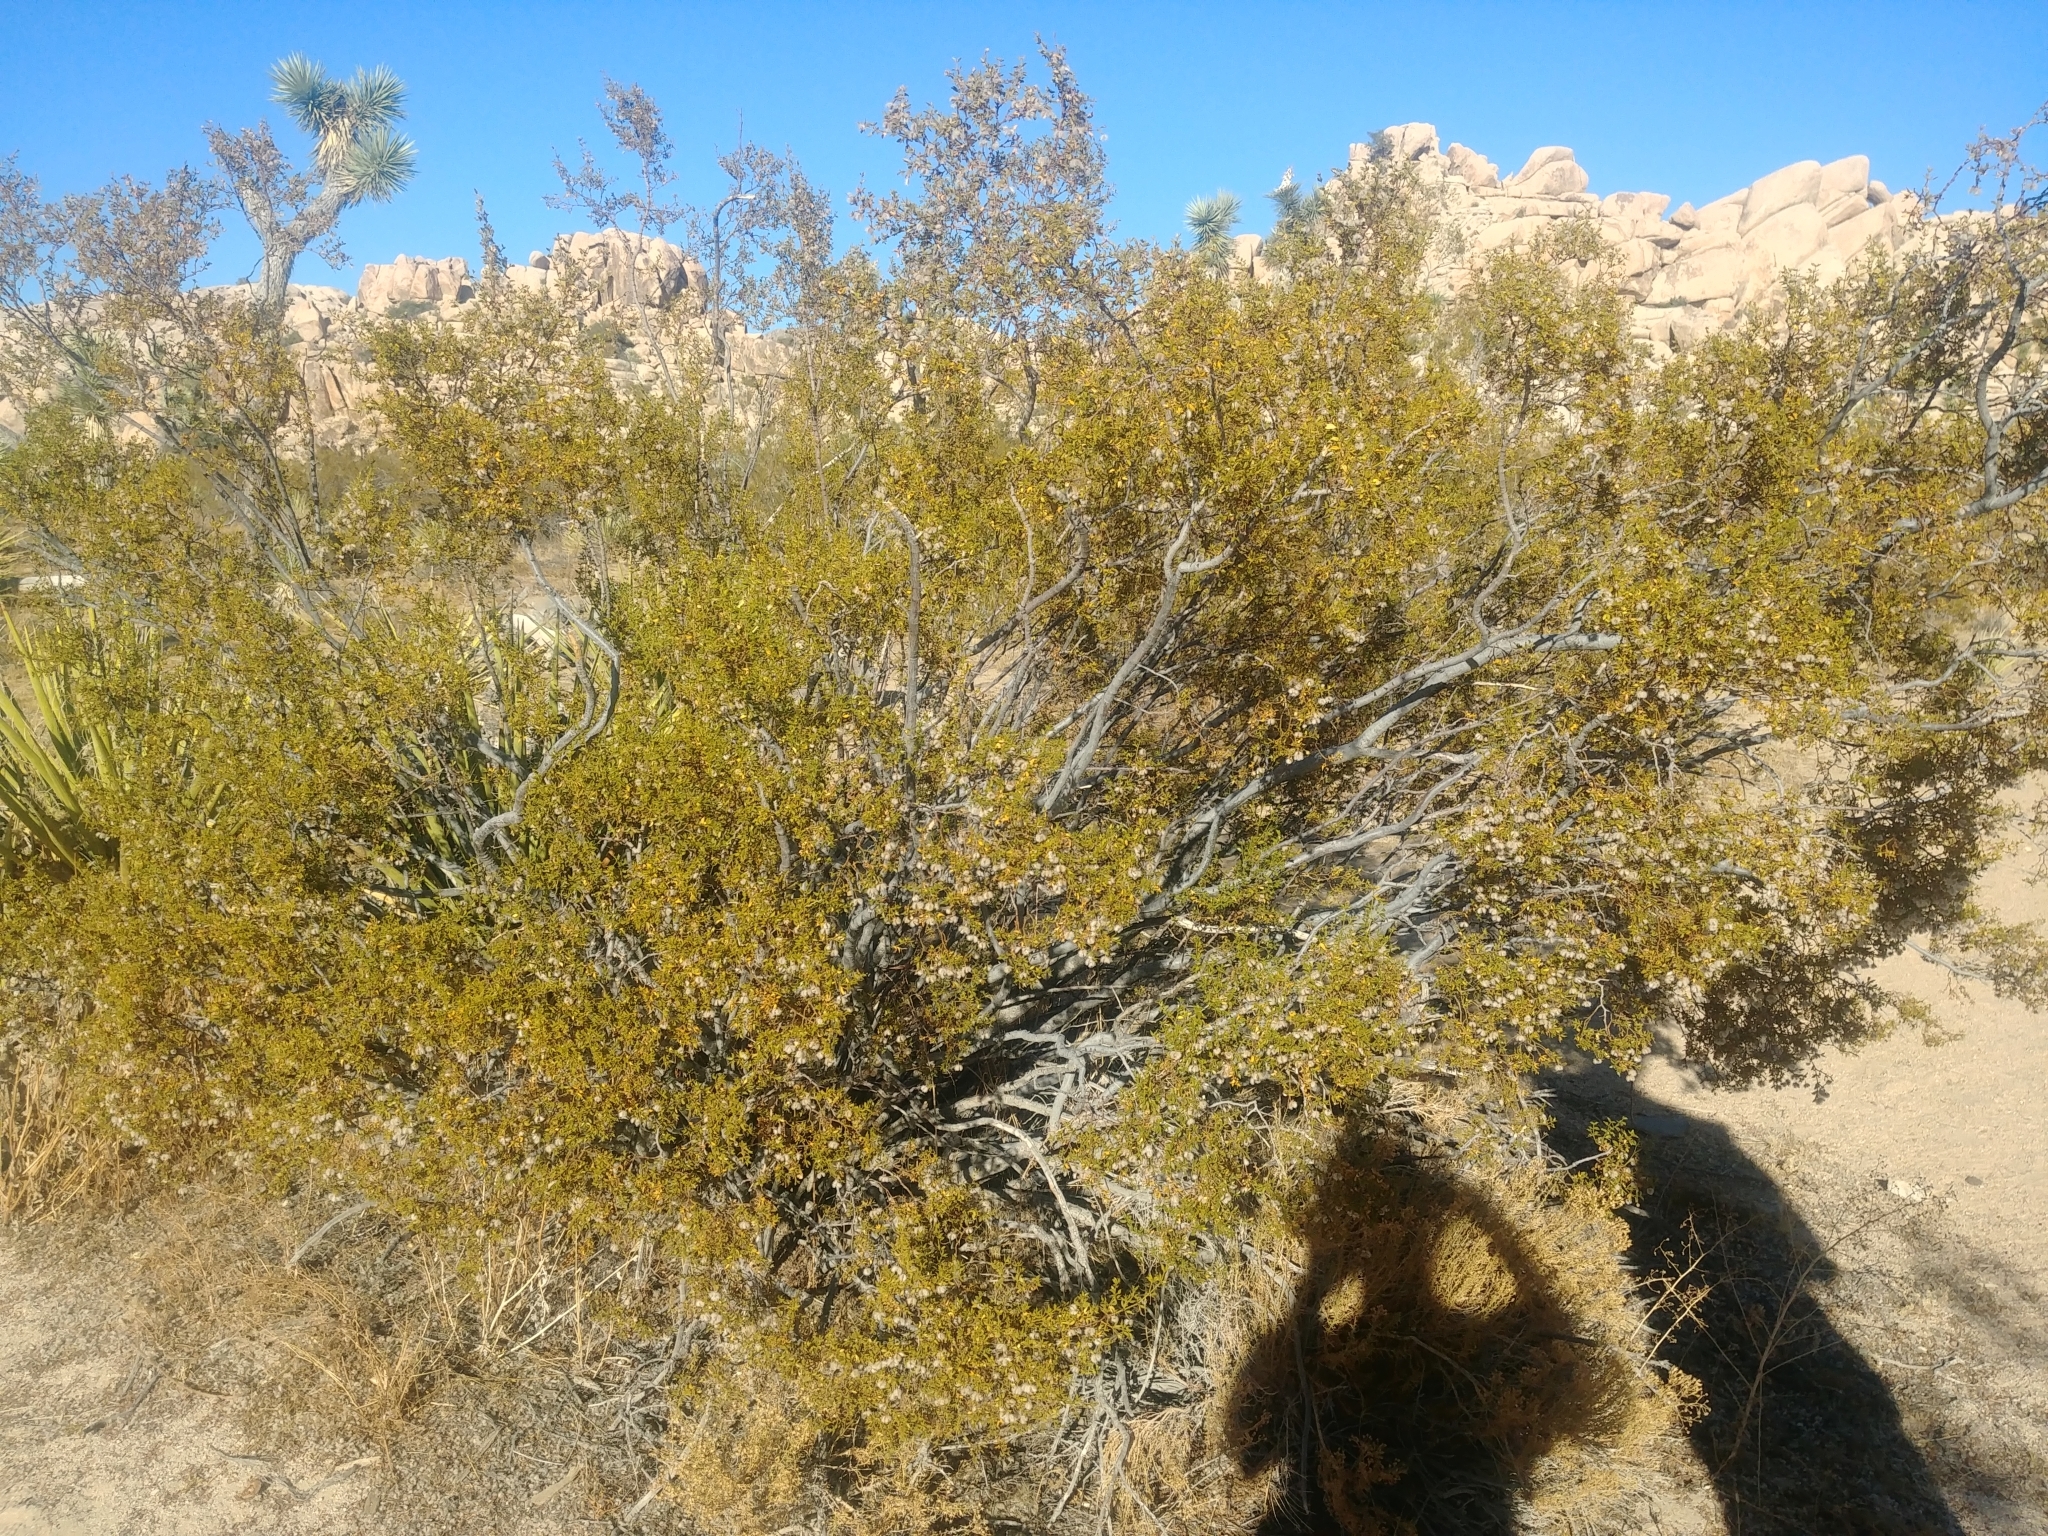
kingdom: Plantae
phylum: Tracheophyta
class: Magnoliopsida
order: Zygophyllales
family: Zygophyllaceae
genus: Larrea
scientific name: Larrea tridentata
